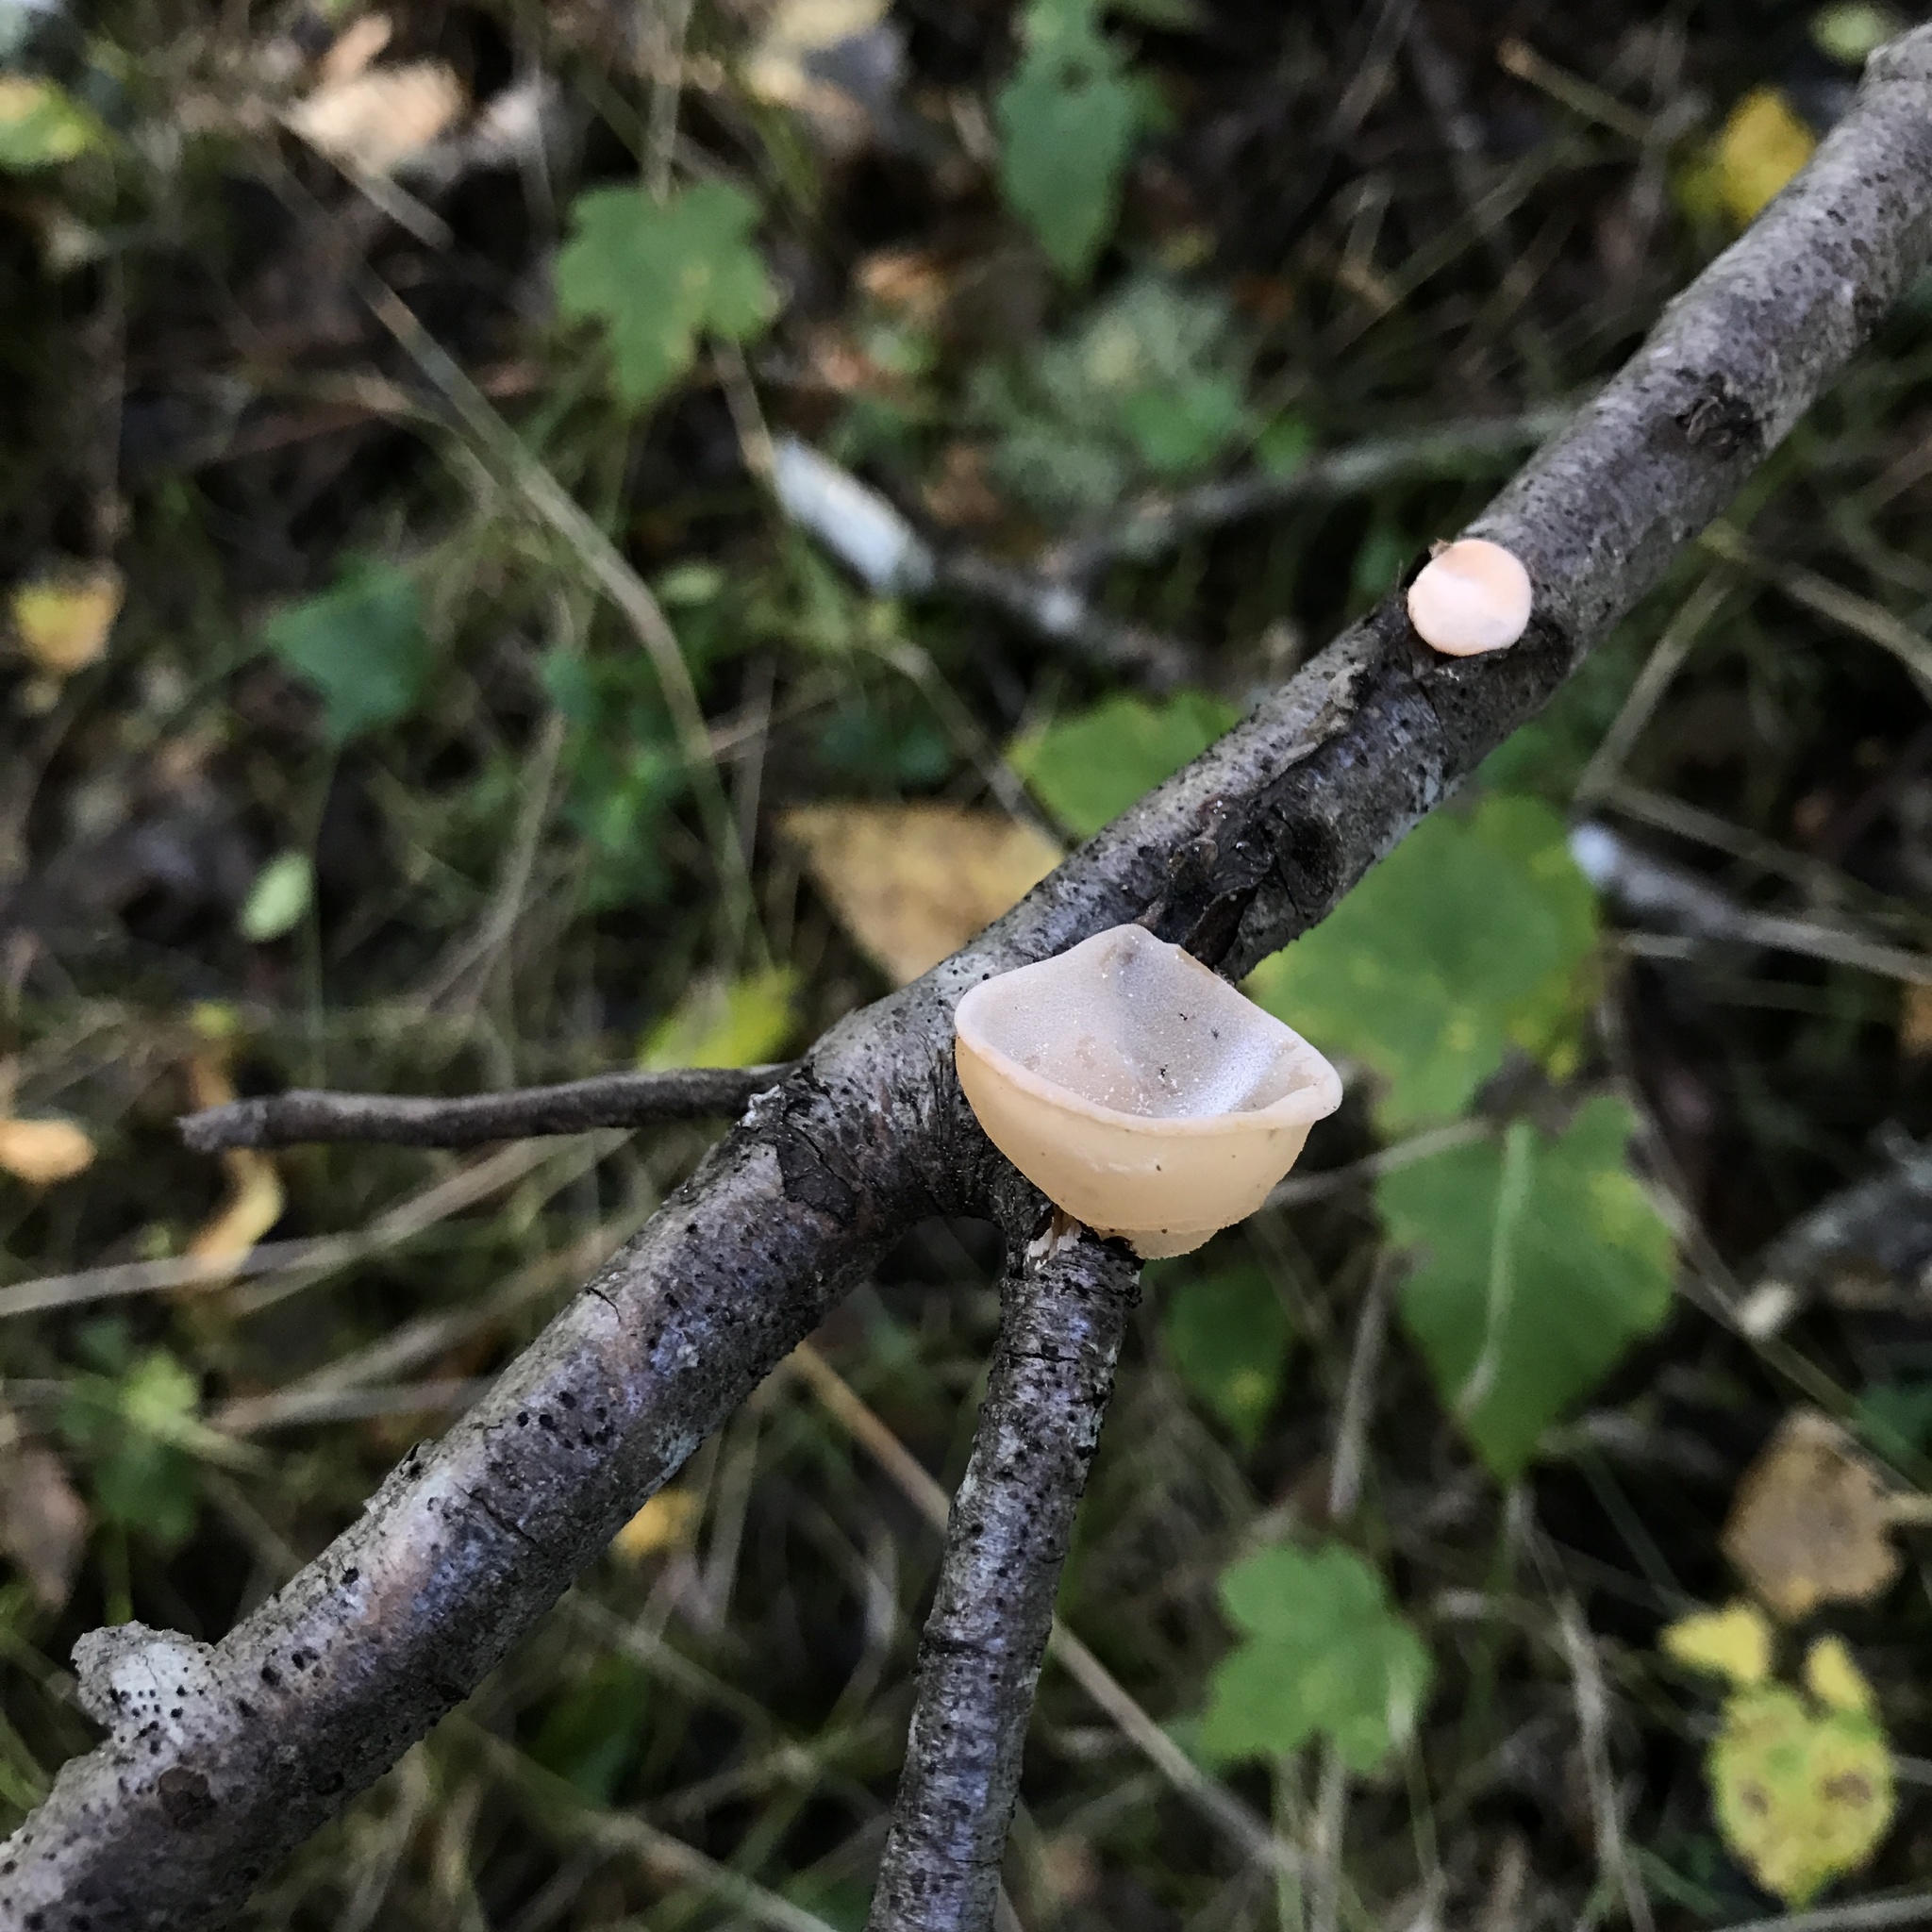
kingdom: Fungi
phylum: Basidiomycota
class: Agaricomycetes
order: Russulales
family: Stereaceae
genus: Aleurodiscus
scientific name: Aleurodiscus vitellinus
